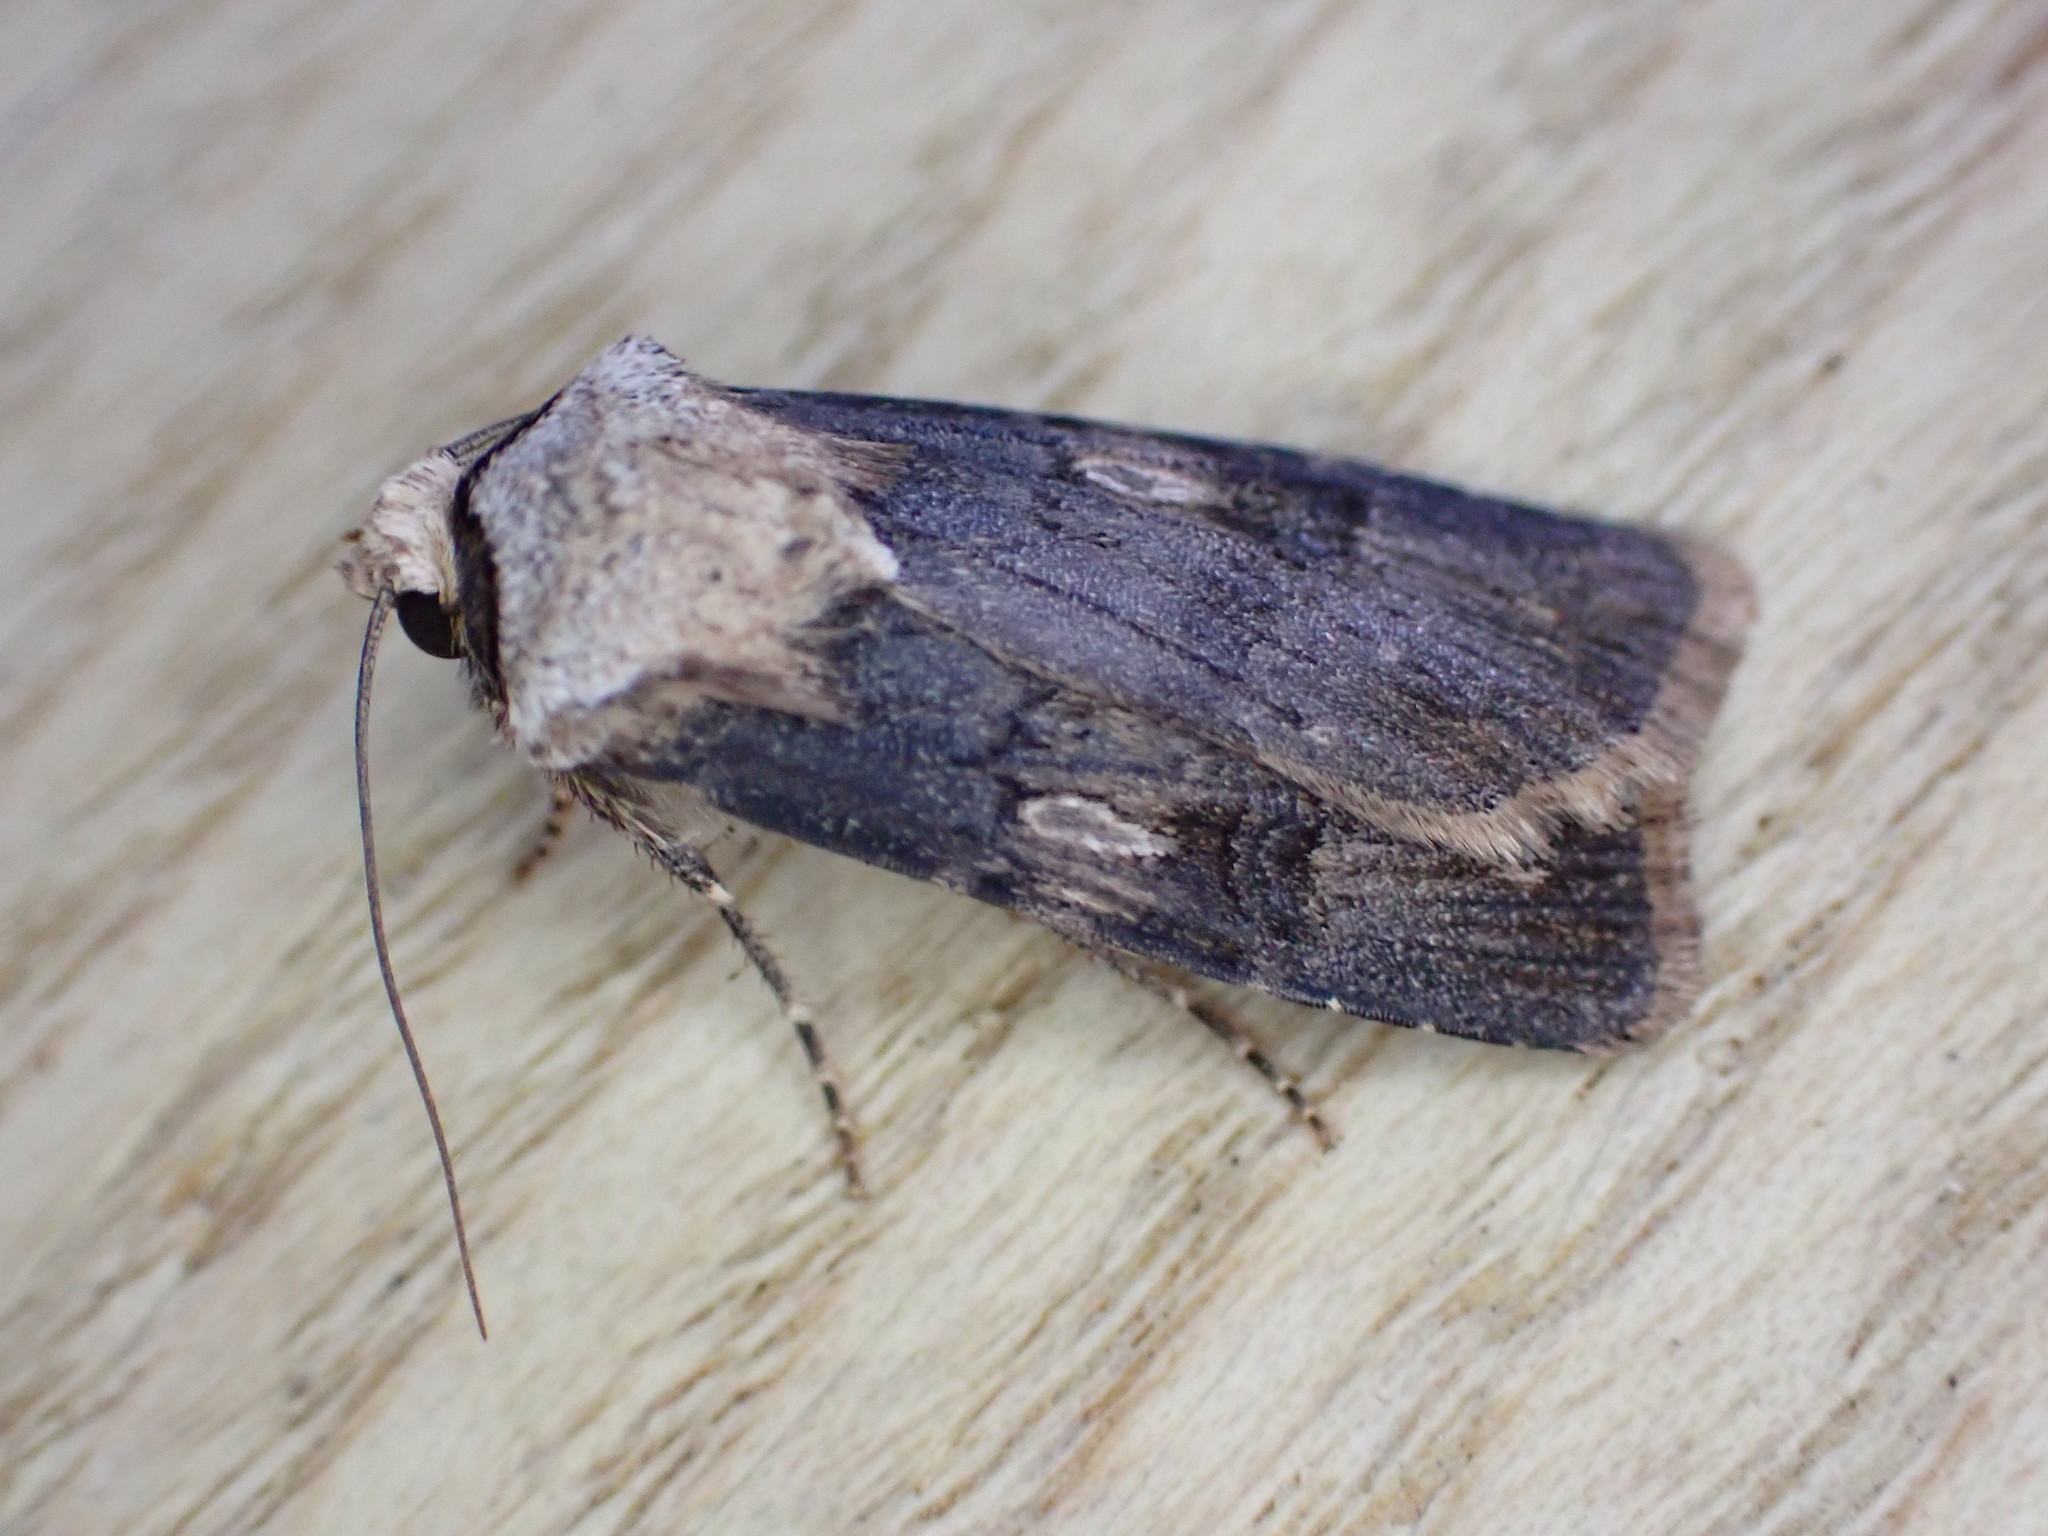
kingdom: Animalia
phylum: Arthropoda
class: Insecta
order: Lepidoptera
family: Noctuidae
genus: Agrotis
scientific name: Agrotis puta
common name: Shuttle-shaped dart
